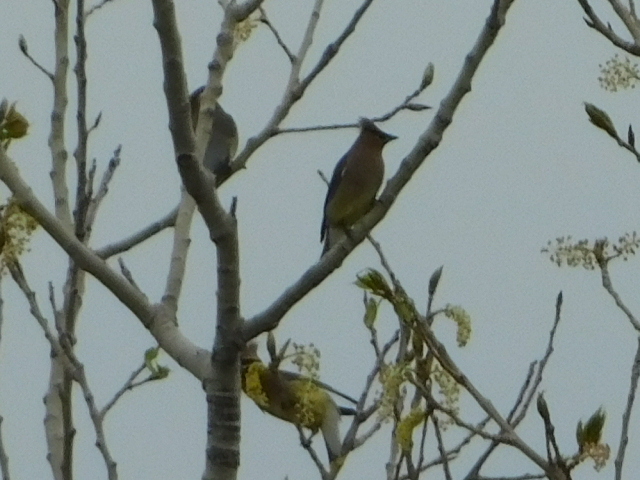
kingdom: Animalia
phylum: Chordata
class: Aves
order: Passeriformes
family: Bombycillidae
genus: Bombycilla
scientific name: Bombycilla cedrorum
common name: Cedar waxwing
